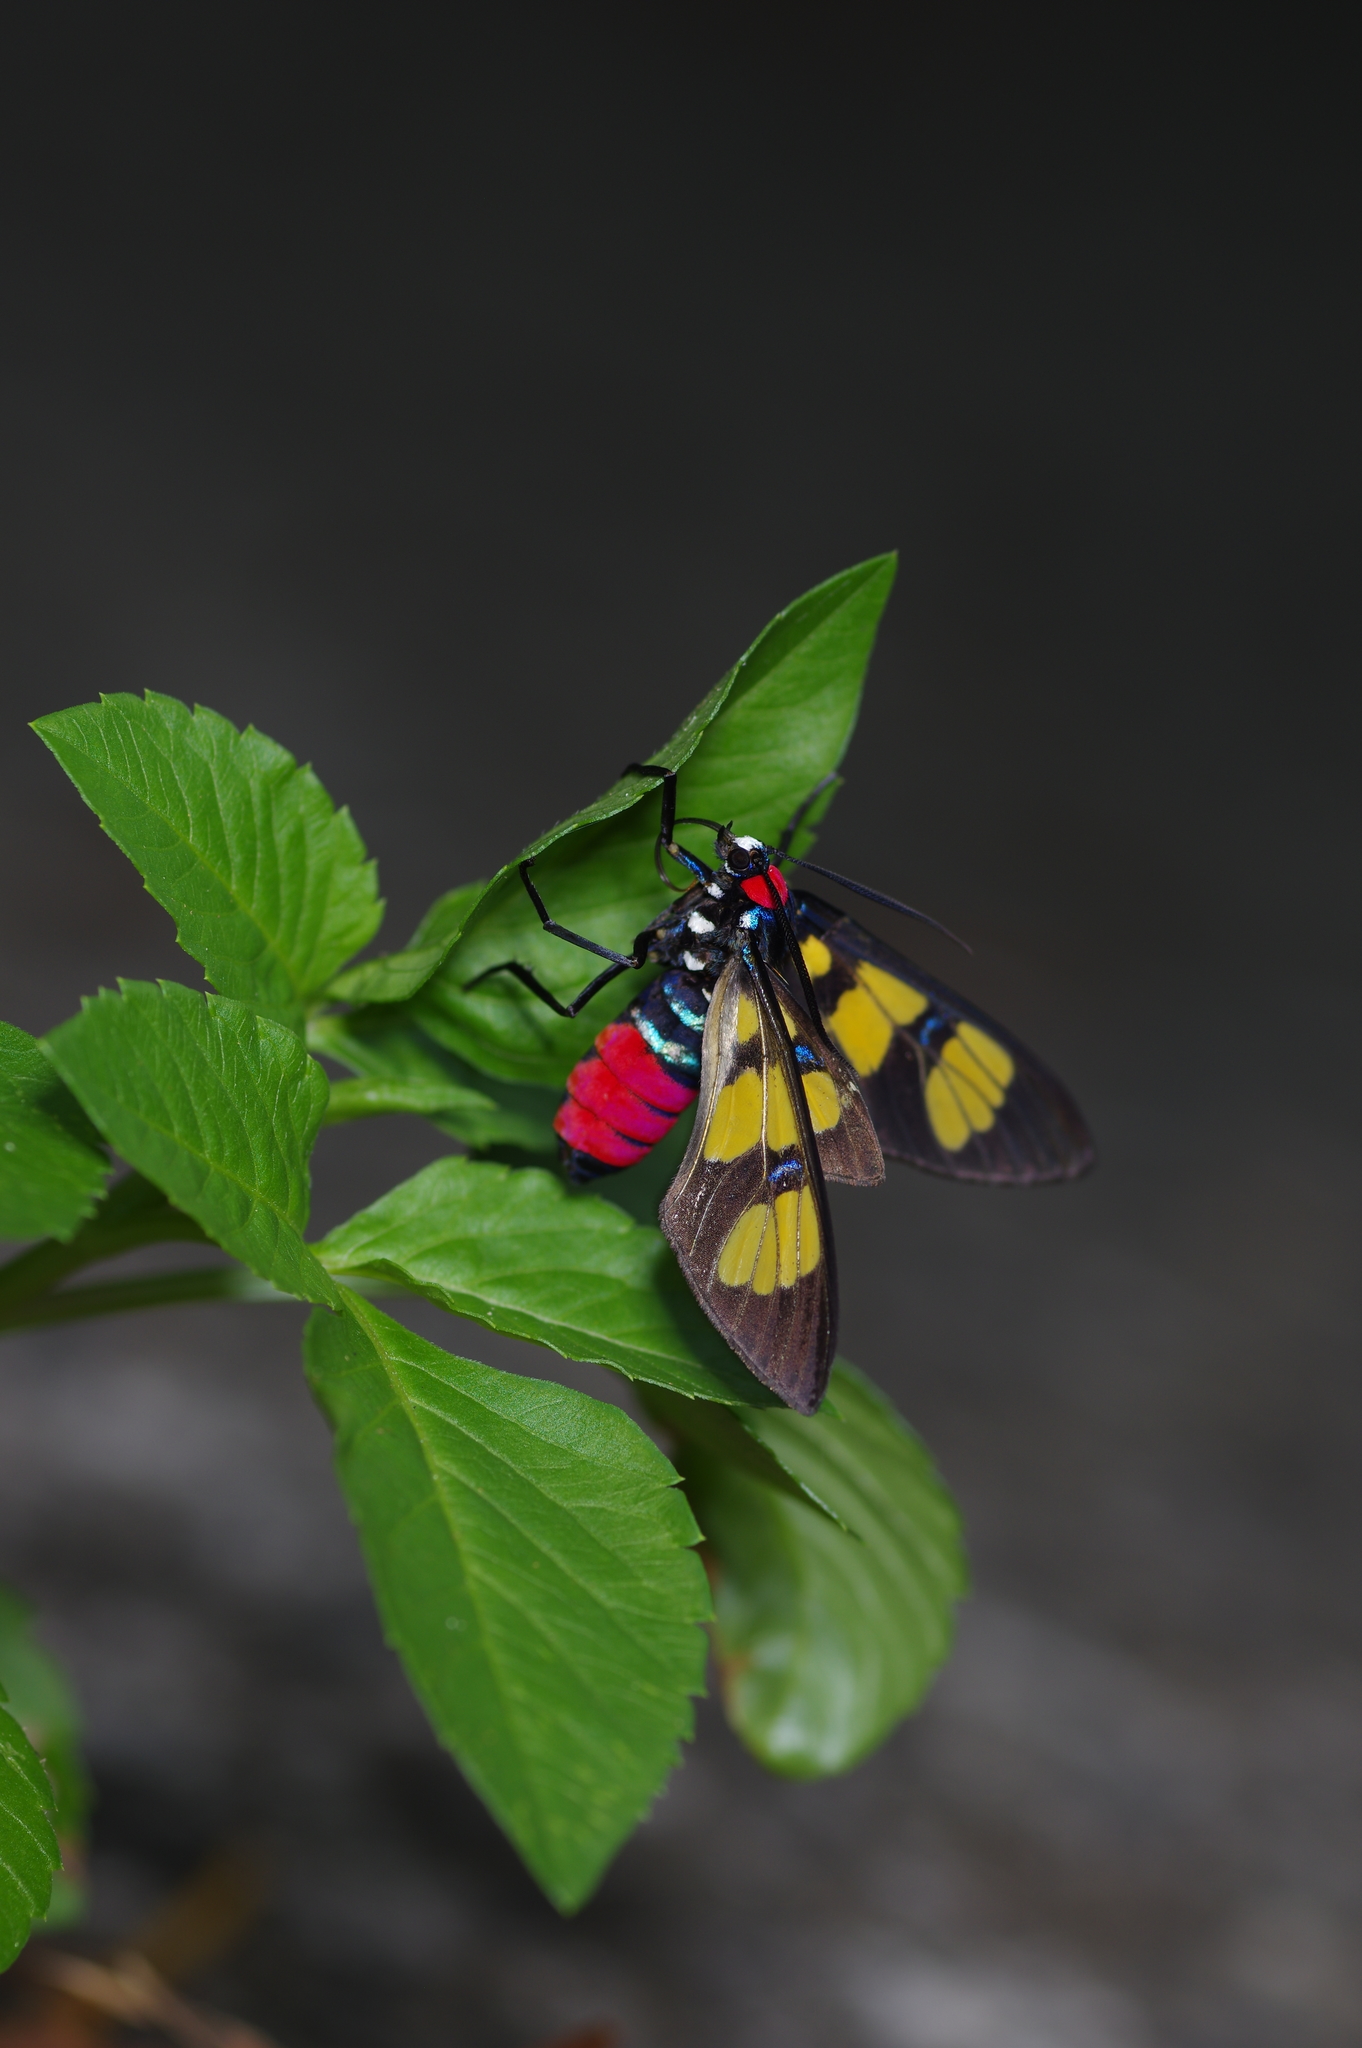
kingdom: Animalia
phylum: Arthropoda
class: Insecta
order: Lepidoptera
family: Erebidae
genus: Euchromia
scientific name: Euchromia polymena
